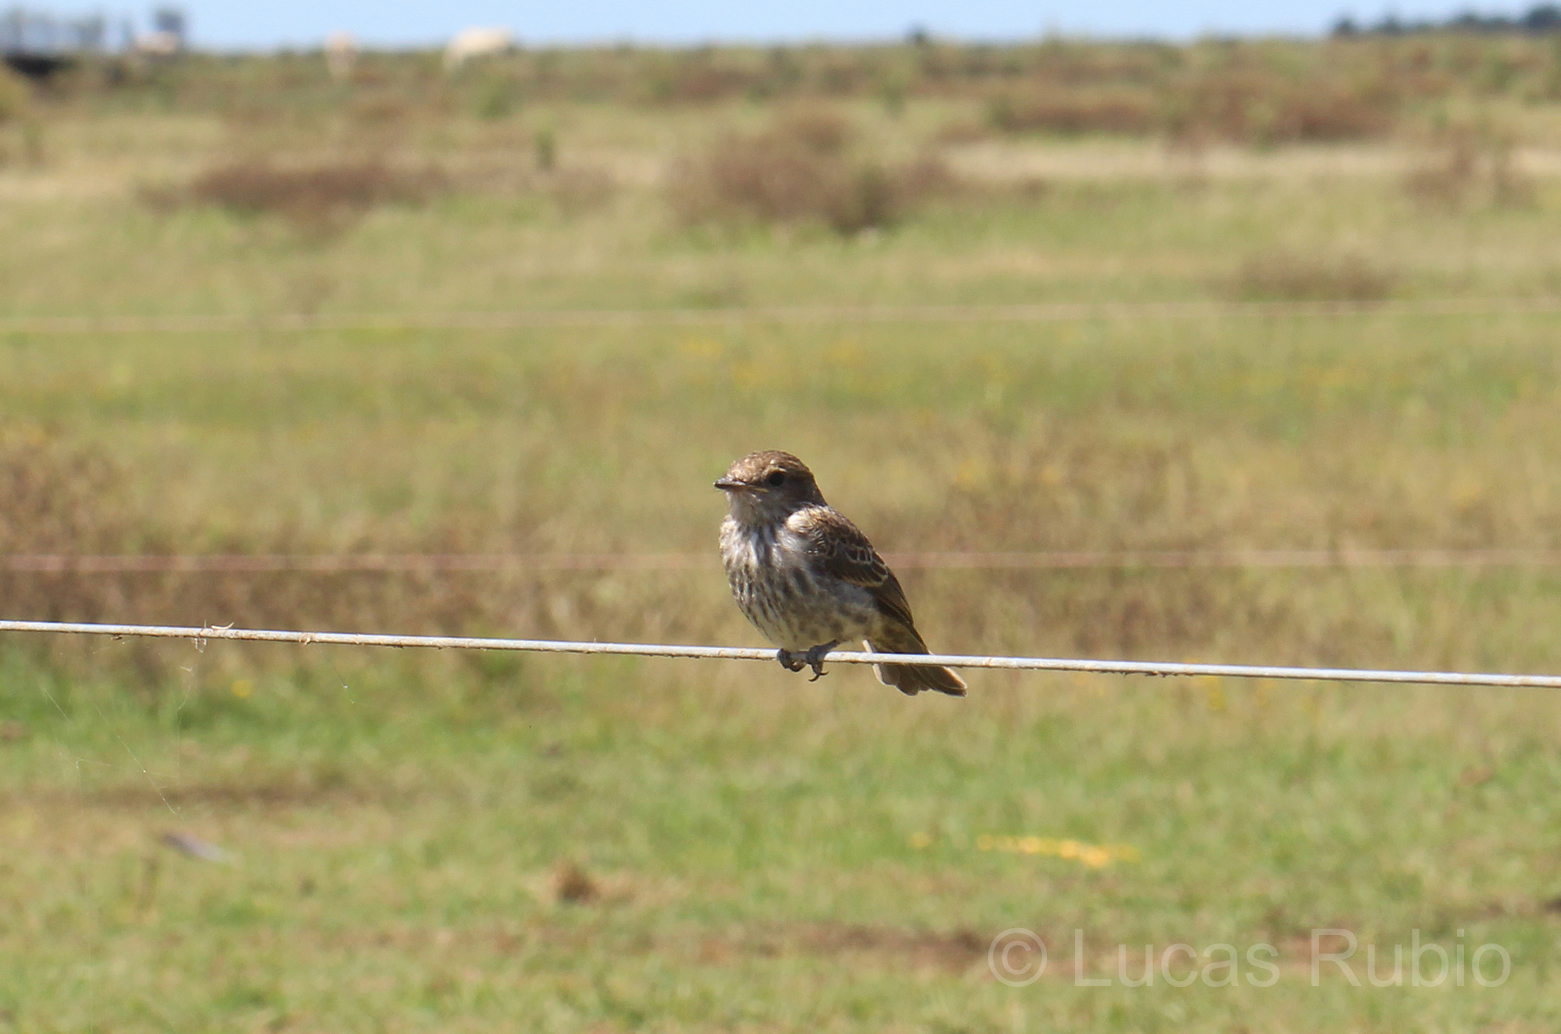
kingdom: Animalia
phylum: Chordata
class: Aves
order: Passeriformes
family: Tyrannidae
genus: Pyrocephalus
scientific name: Pyrocephalus rubinus
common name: Vermilion flycatcher
